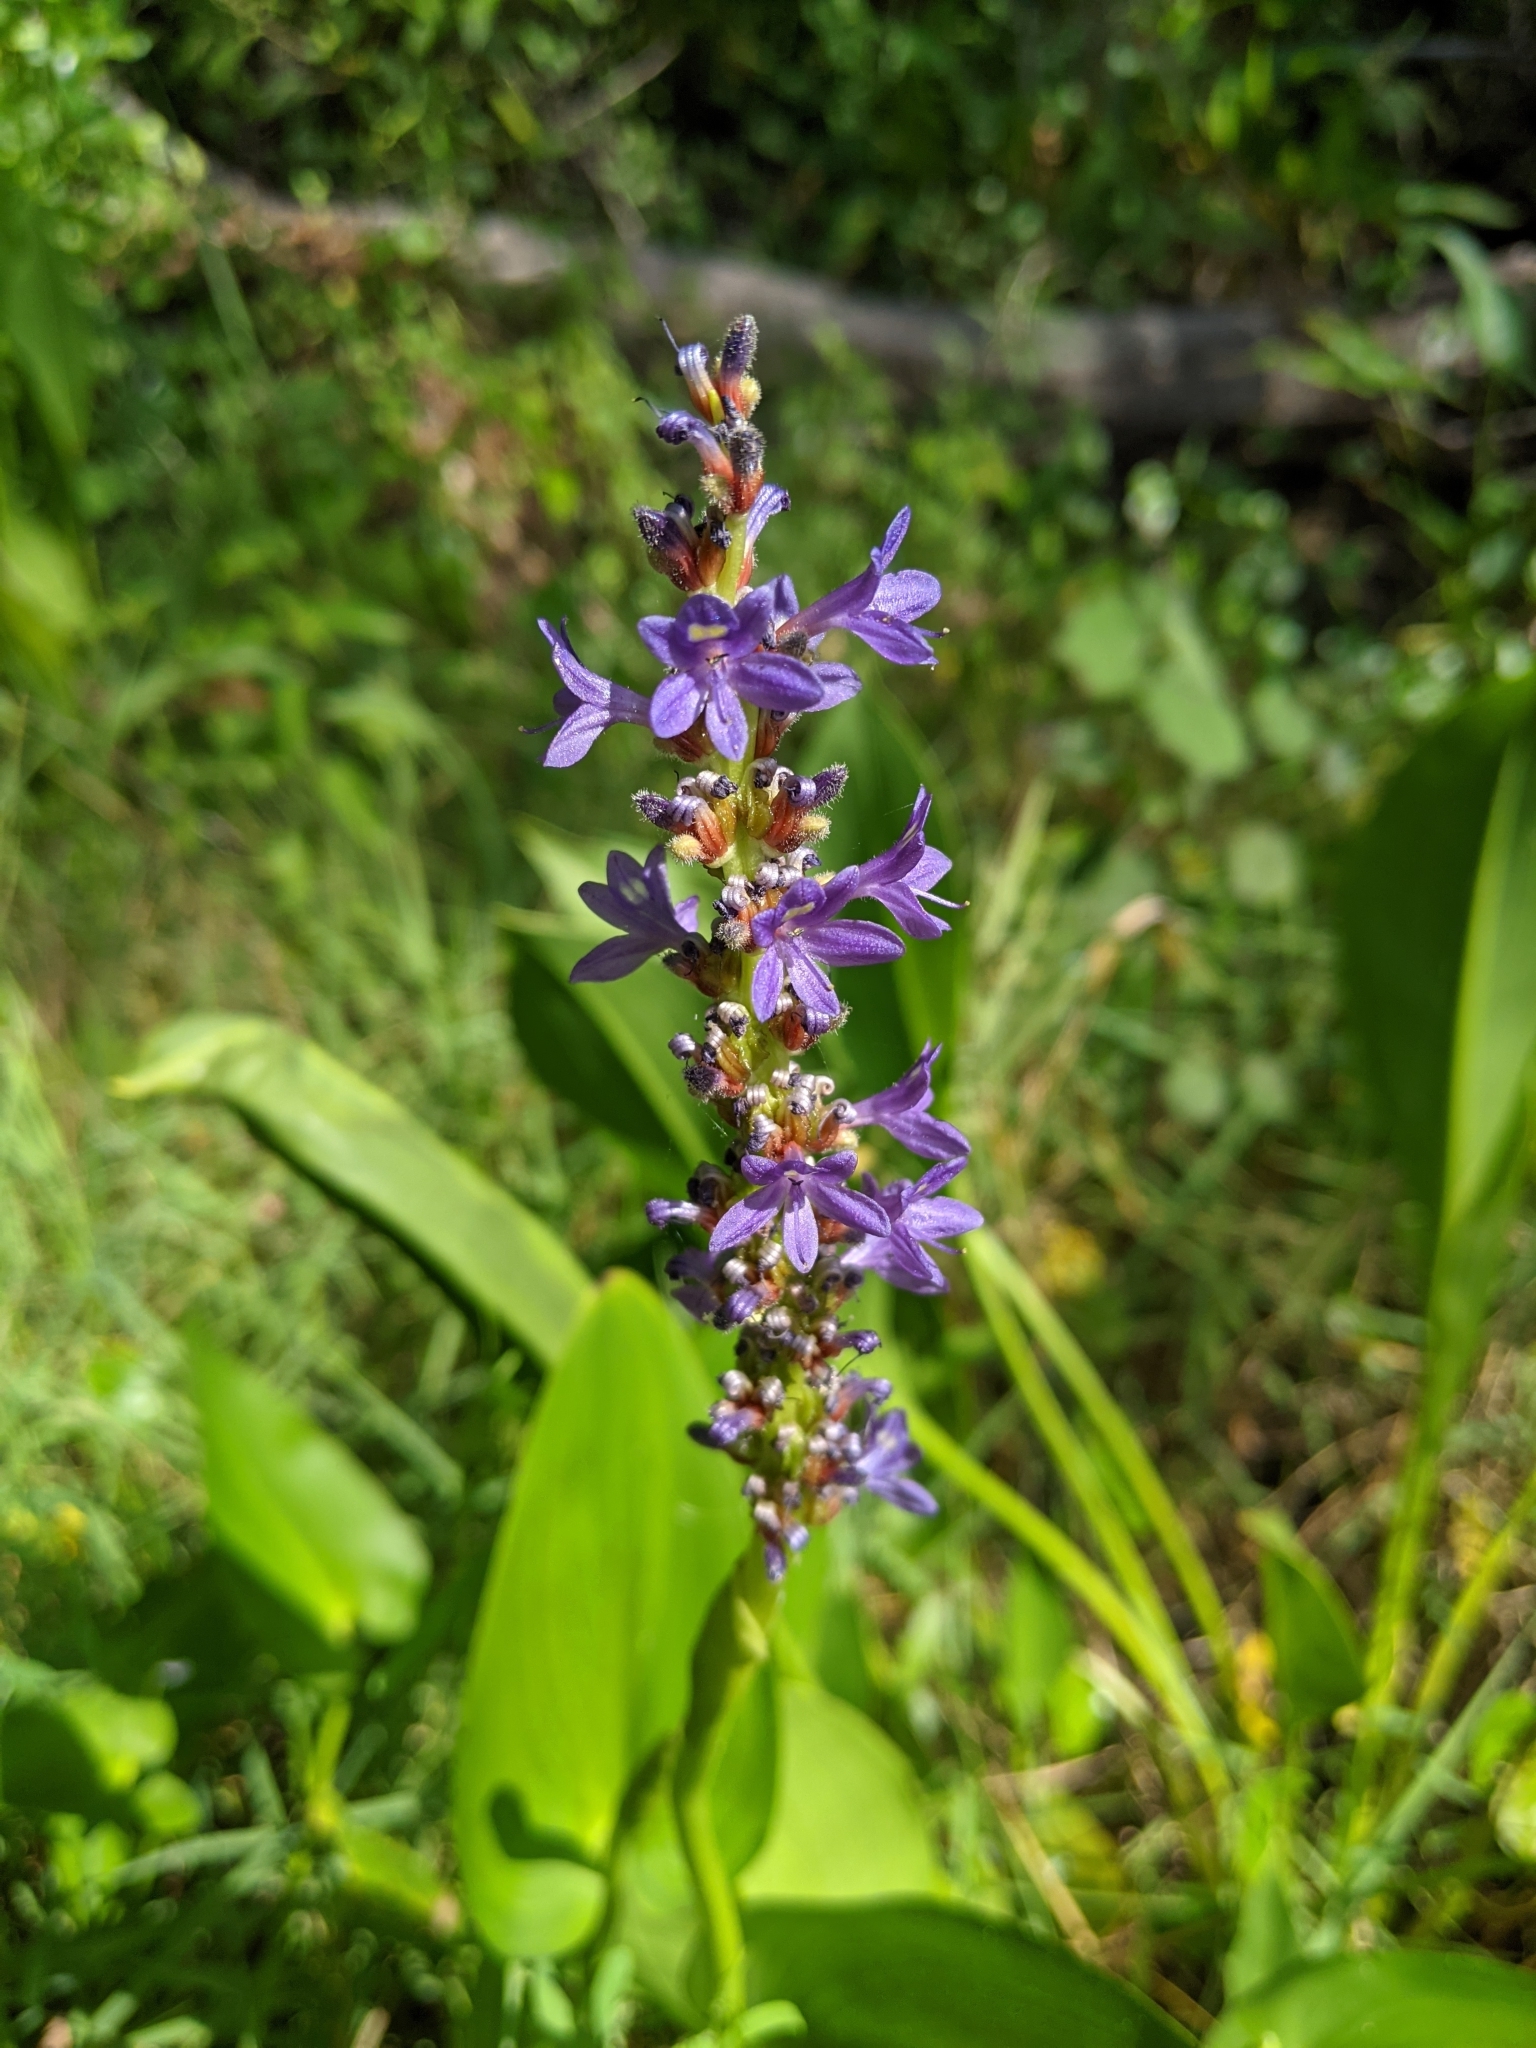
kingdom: Plantae
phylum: Tracheophyta
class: Liliopsida
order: Commelinales
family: Pontederiaceae
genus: Pontederia
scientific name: Pontederia cordata
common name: Pickerelweed
